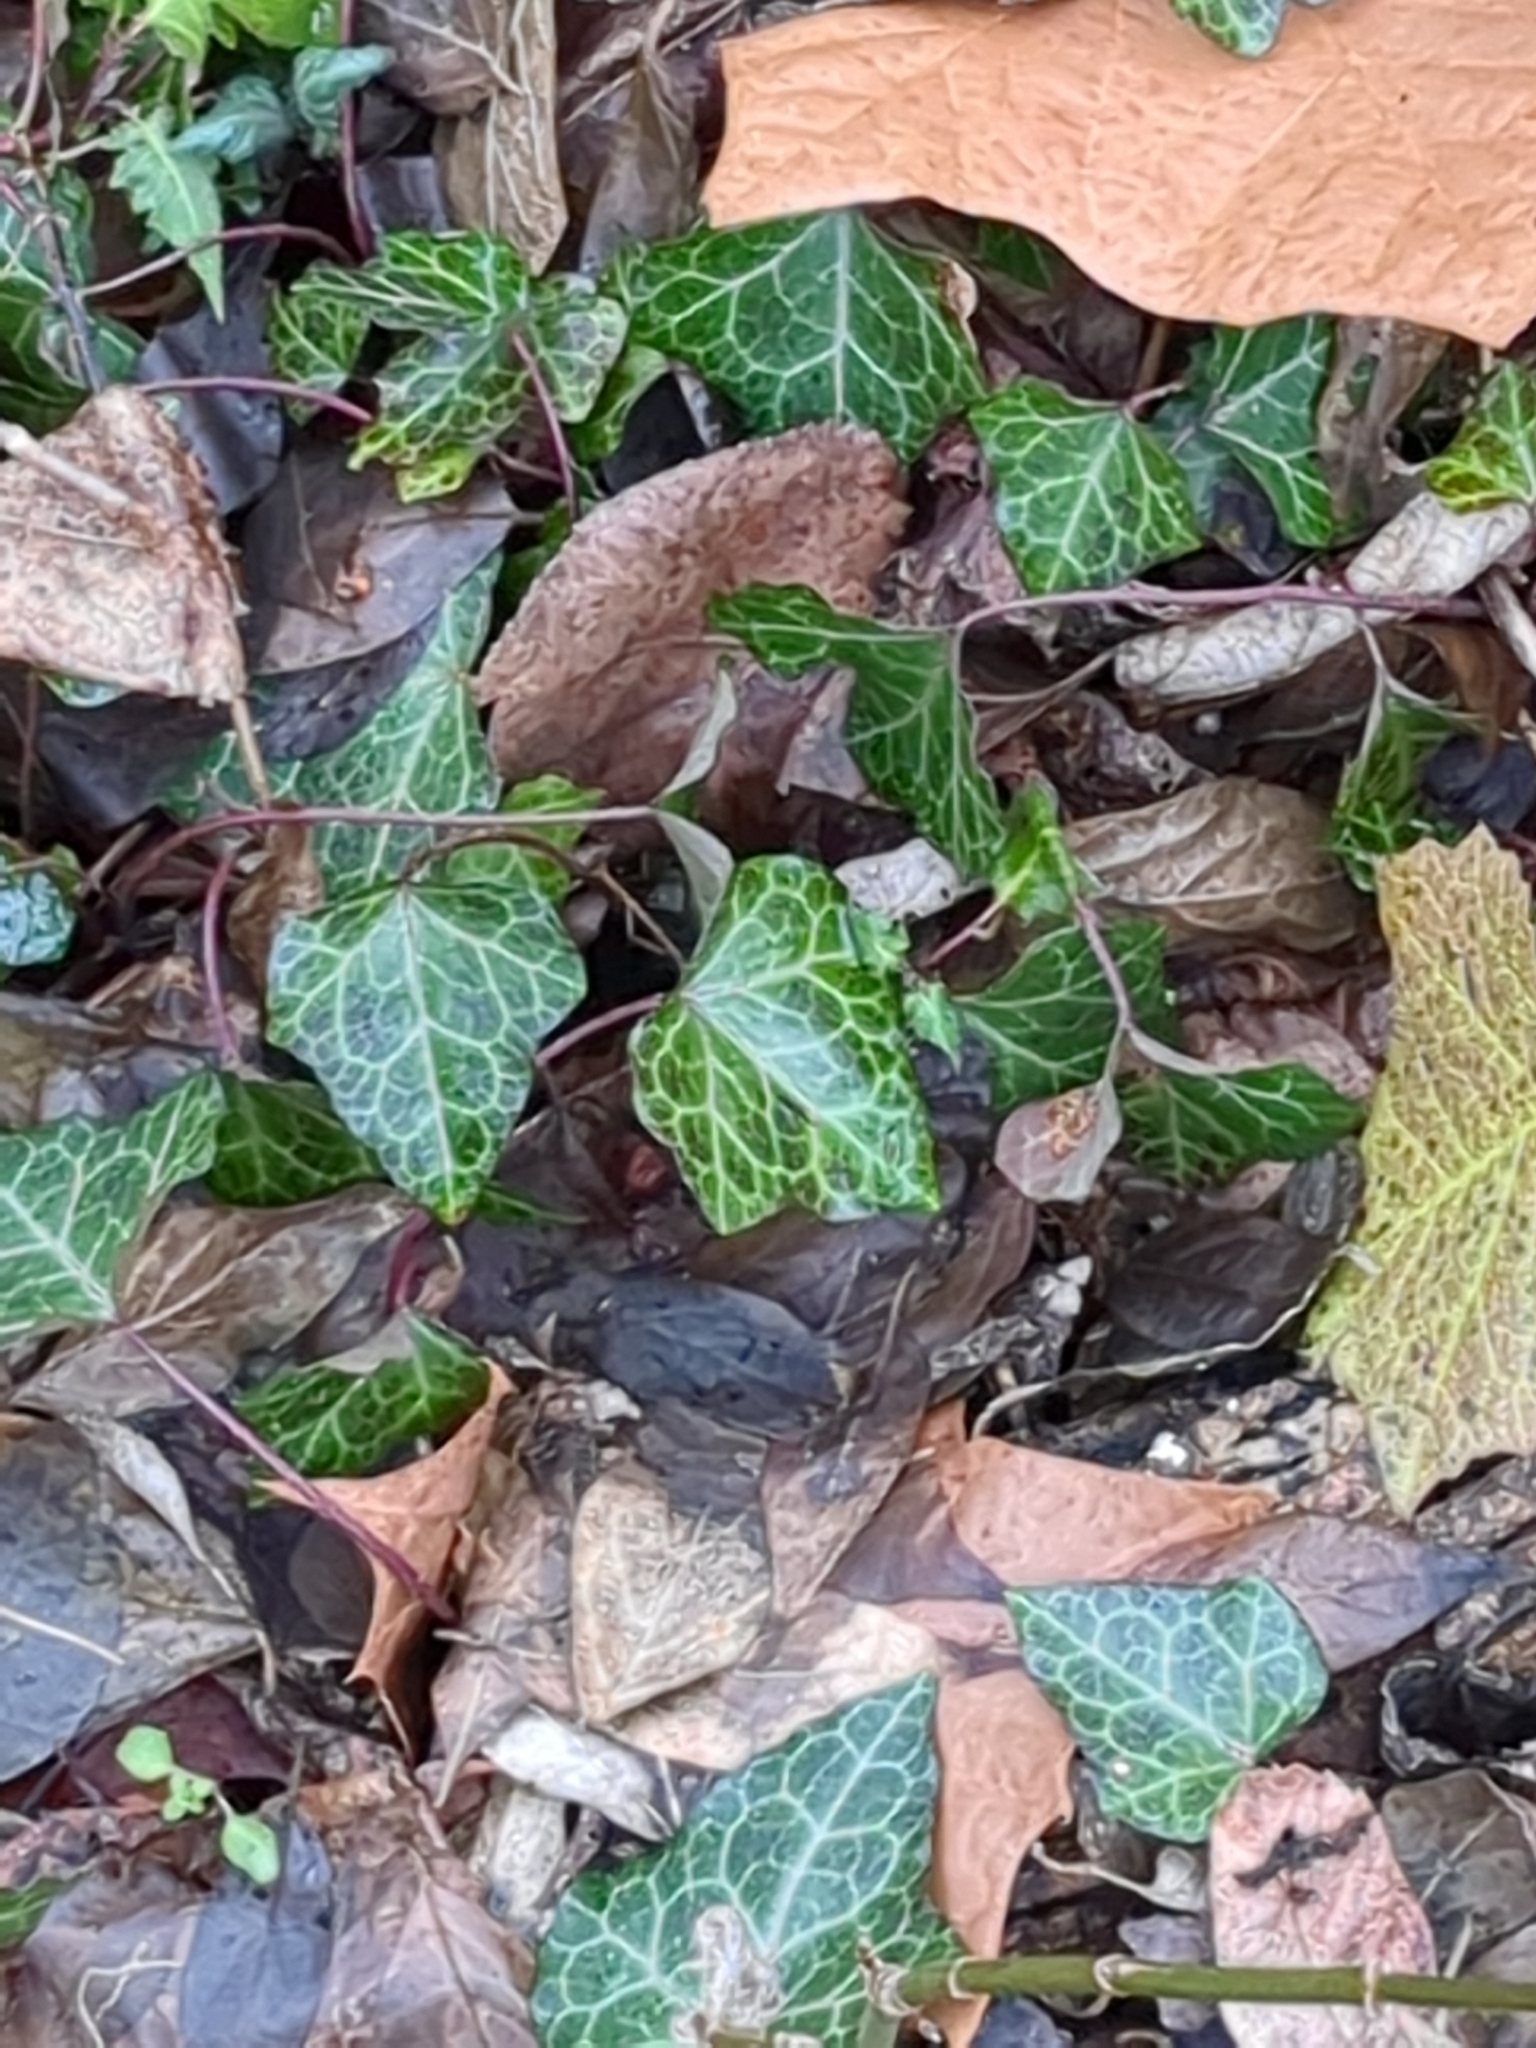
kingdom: Plantae
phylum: Tracheophyta
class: Magnoliopsida
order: Apiales
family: Araliaceae
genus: Hedera
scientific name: Hedera helix
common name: Ivy
